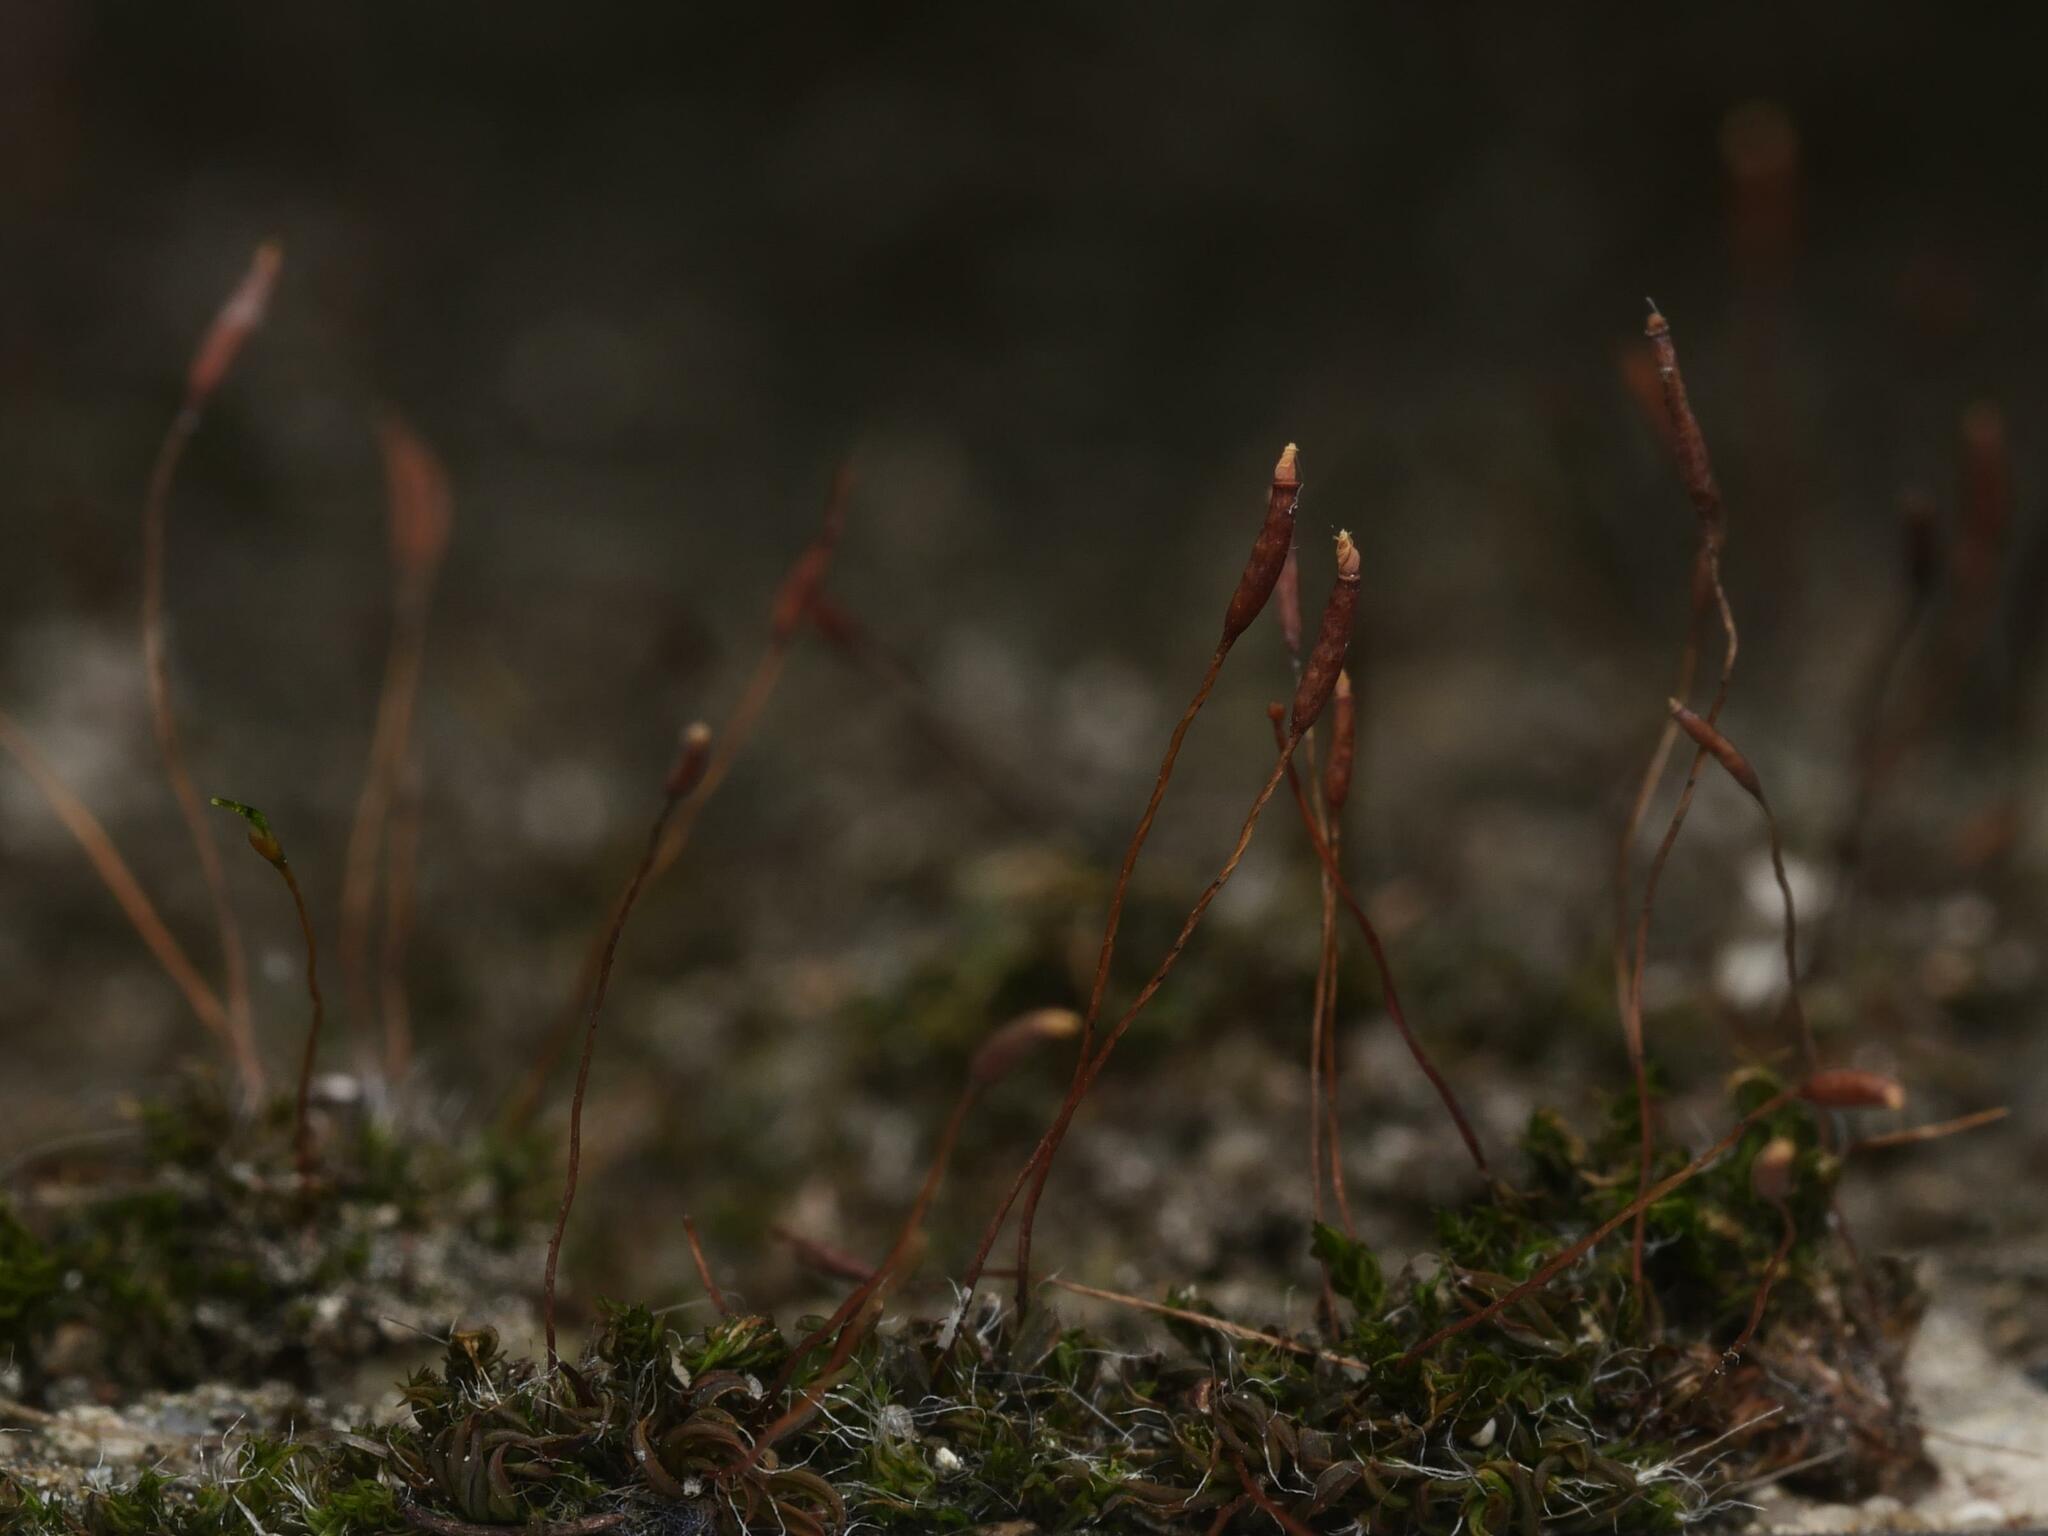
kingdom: Plantae
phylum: Bryophyta
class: Bryopsida
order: Pottiales
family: Pottiaceae
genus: Tortula
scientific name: Tortula muralis
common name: Wall screw-moss
